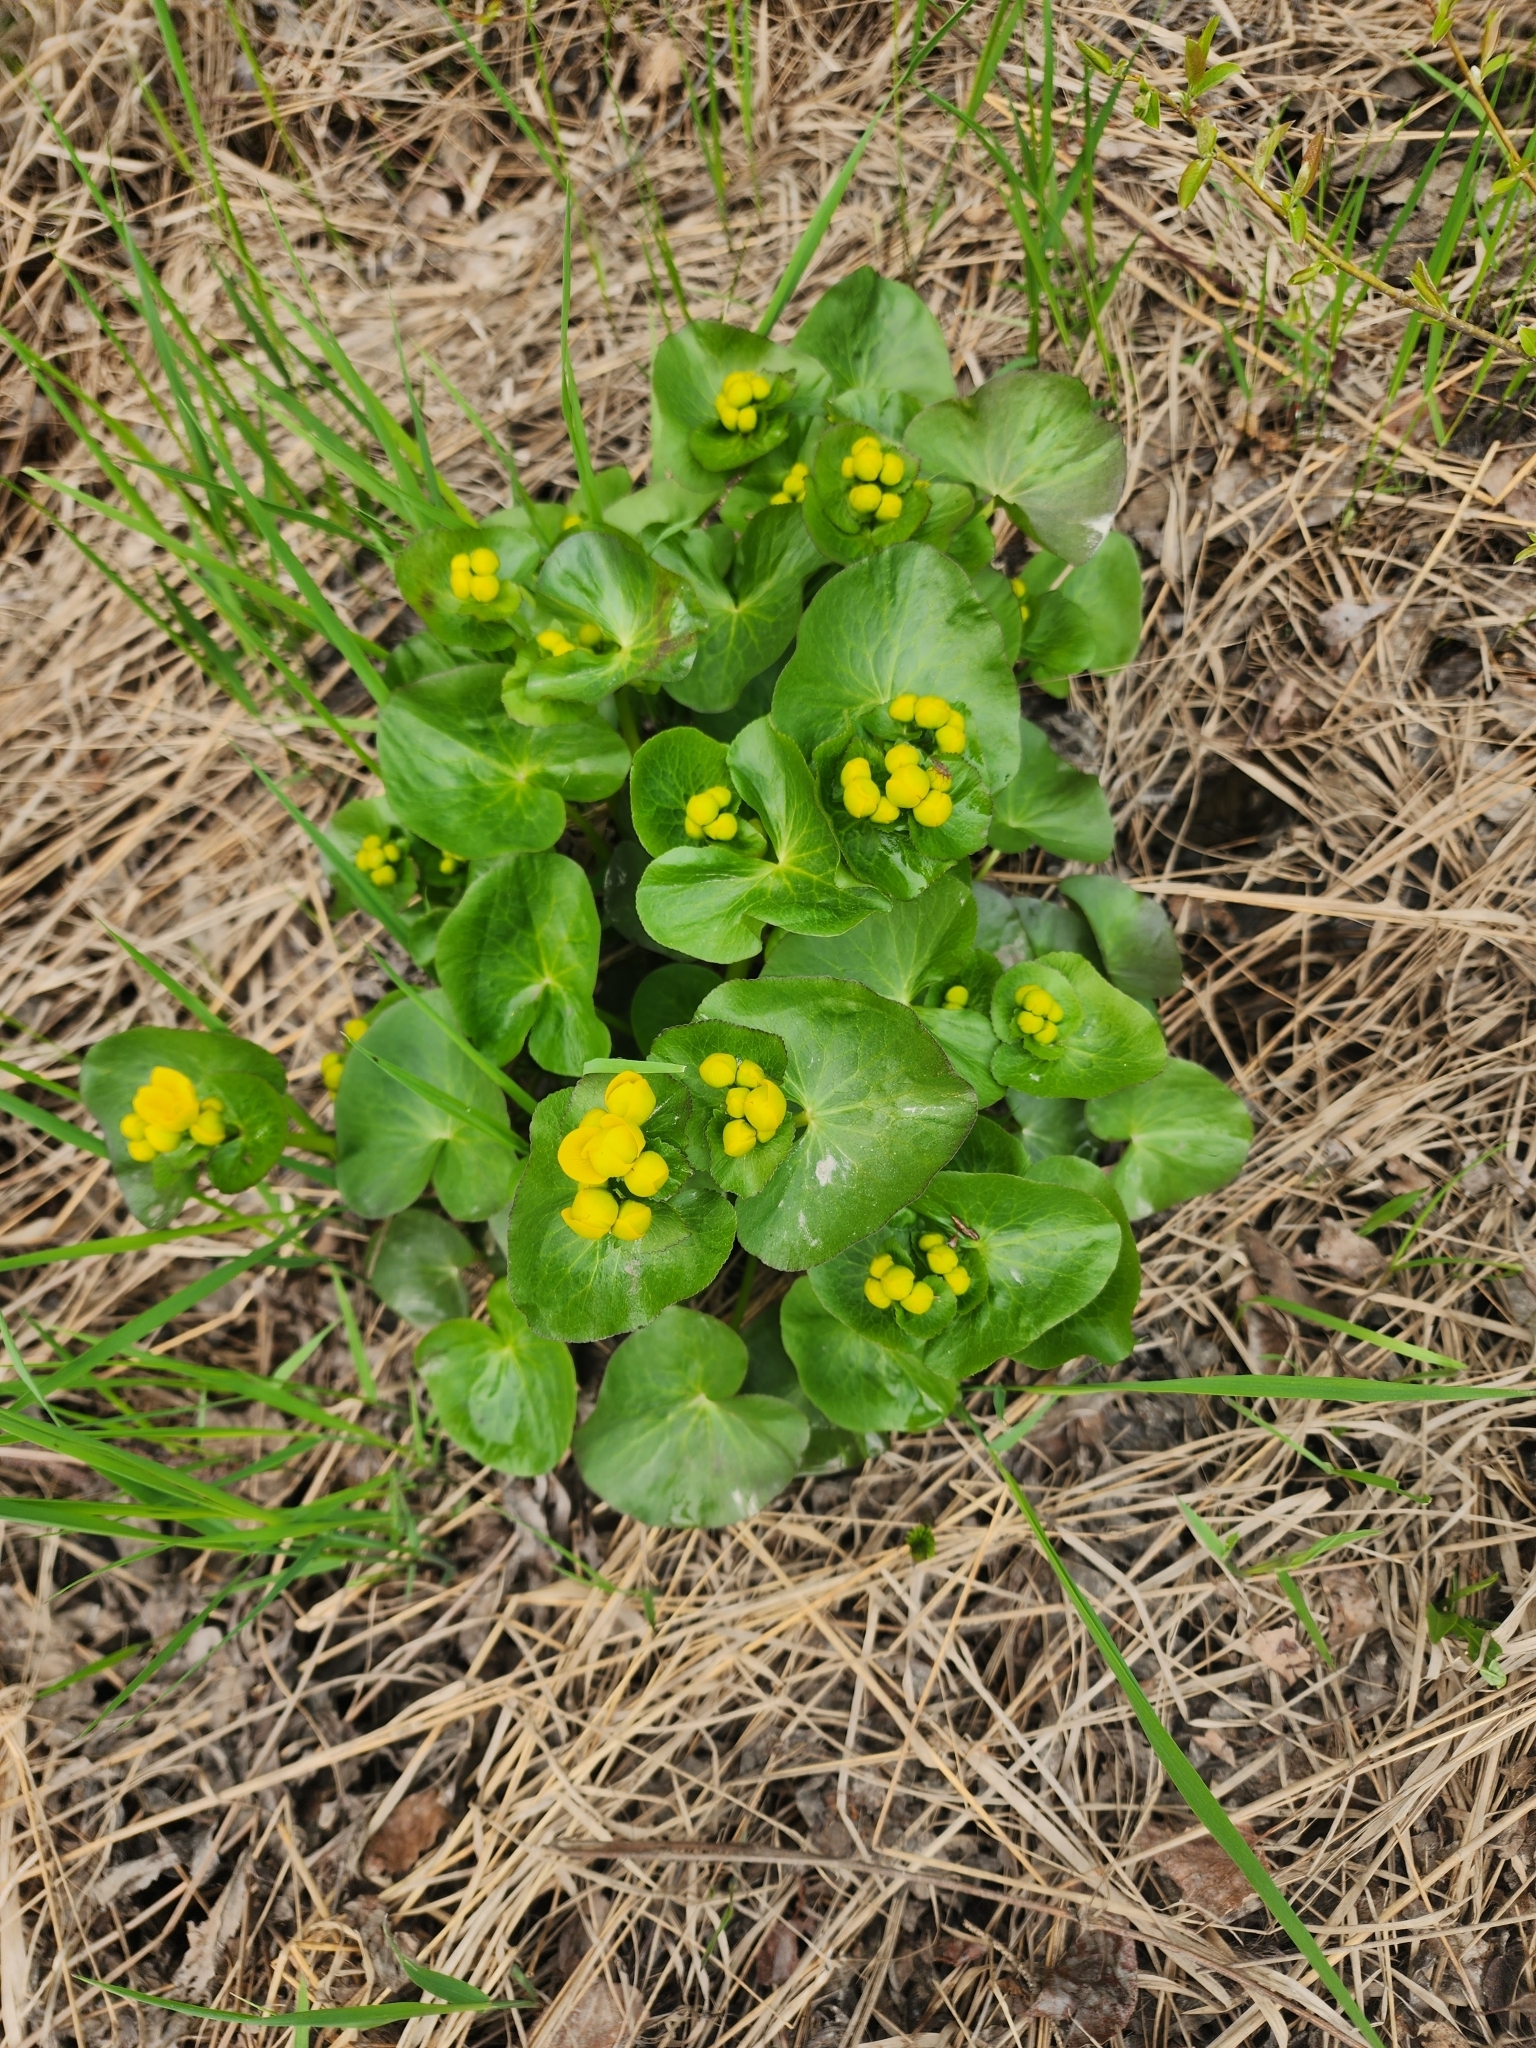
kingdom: Plantae
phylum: Tracheophyta
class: Magnoliopsida
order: Ranunculales
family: Ranunculaceae
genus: Caltha
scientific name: Caltha palustris
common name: Marsh marigold
